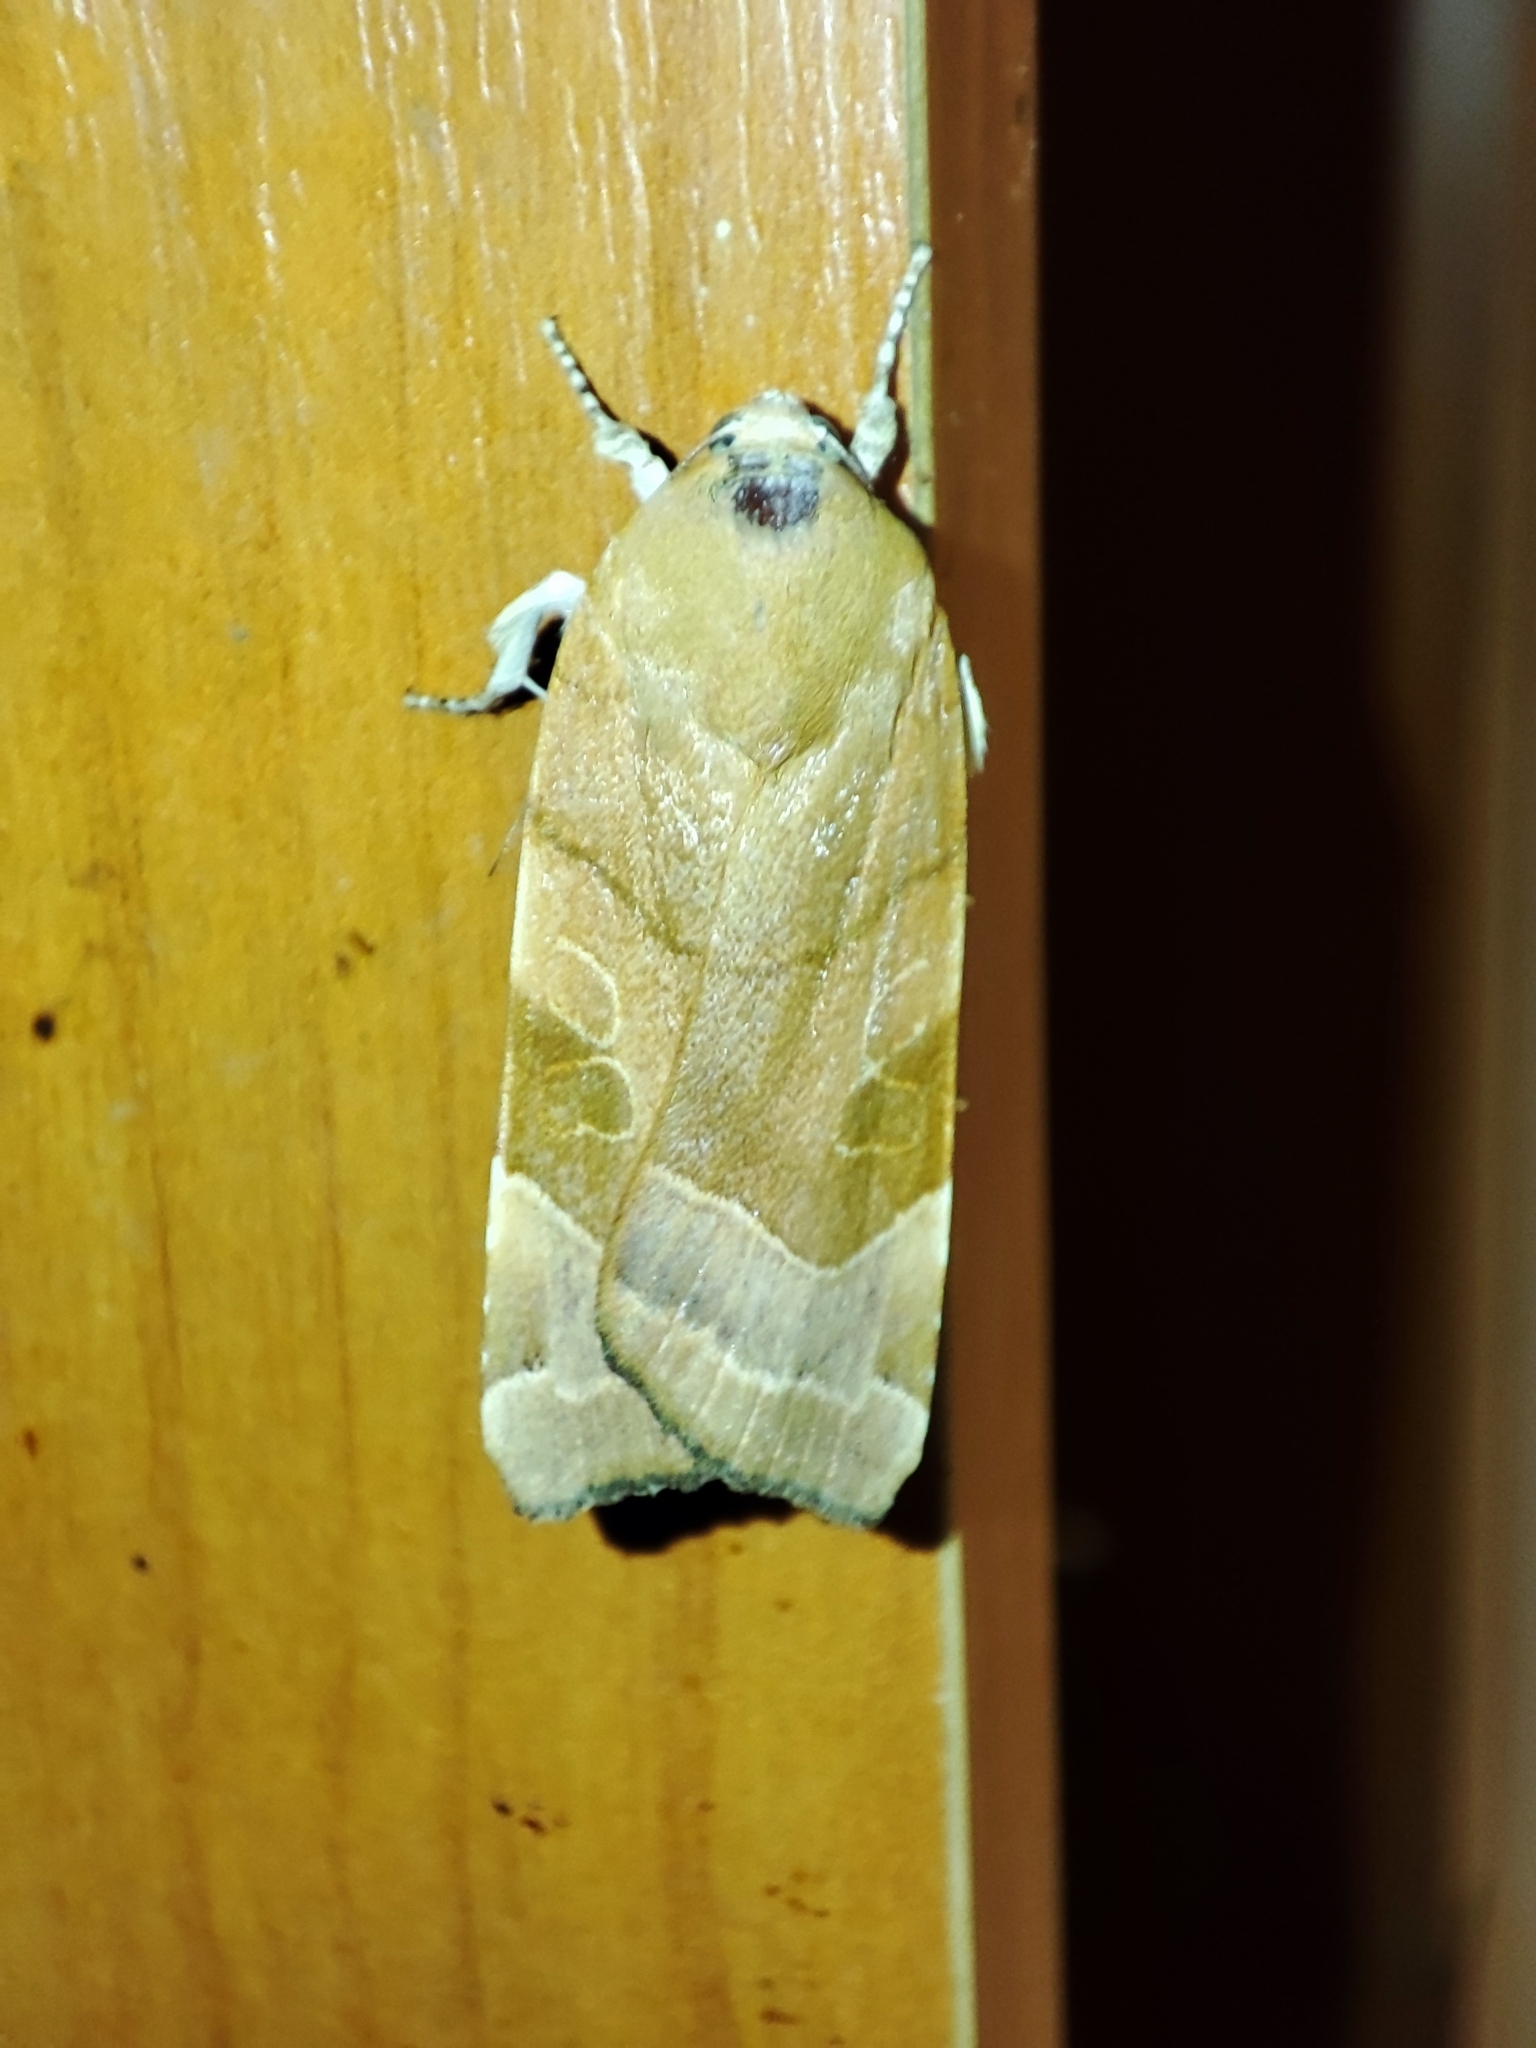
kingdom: Animalia
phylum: Arthropoda
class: Insecta
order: Lepidoptera
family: Noctuidae
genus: Noctua
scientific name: Noctua fimbriata
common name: Broad-bordered yellow underwing
